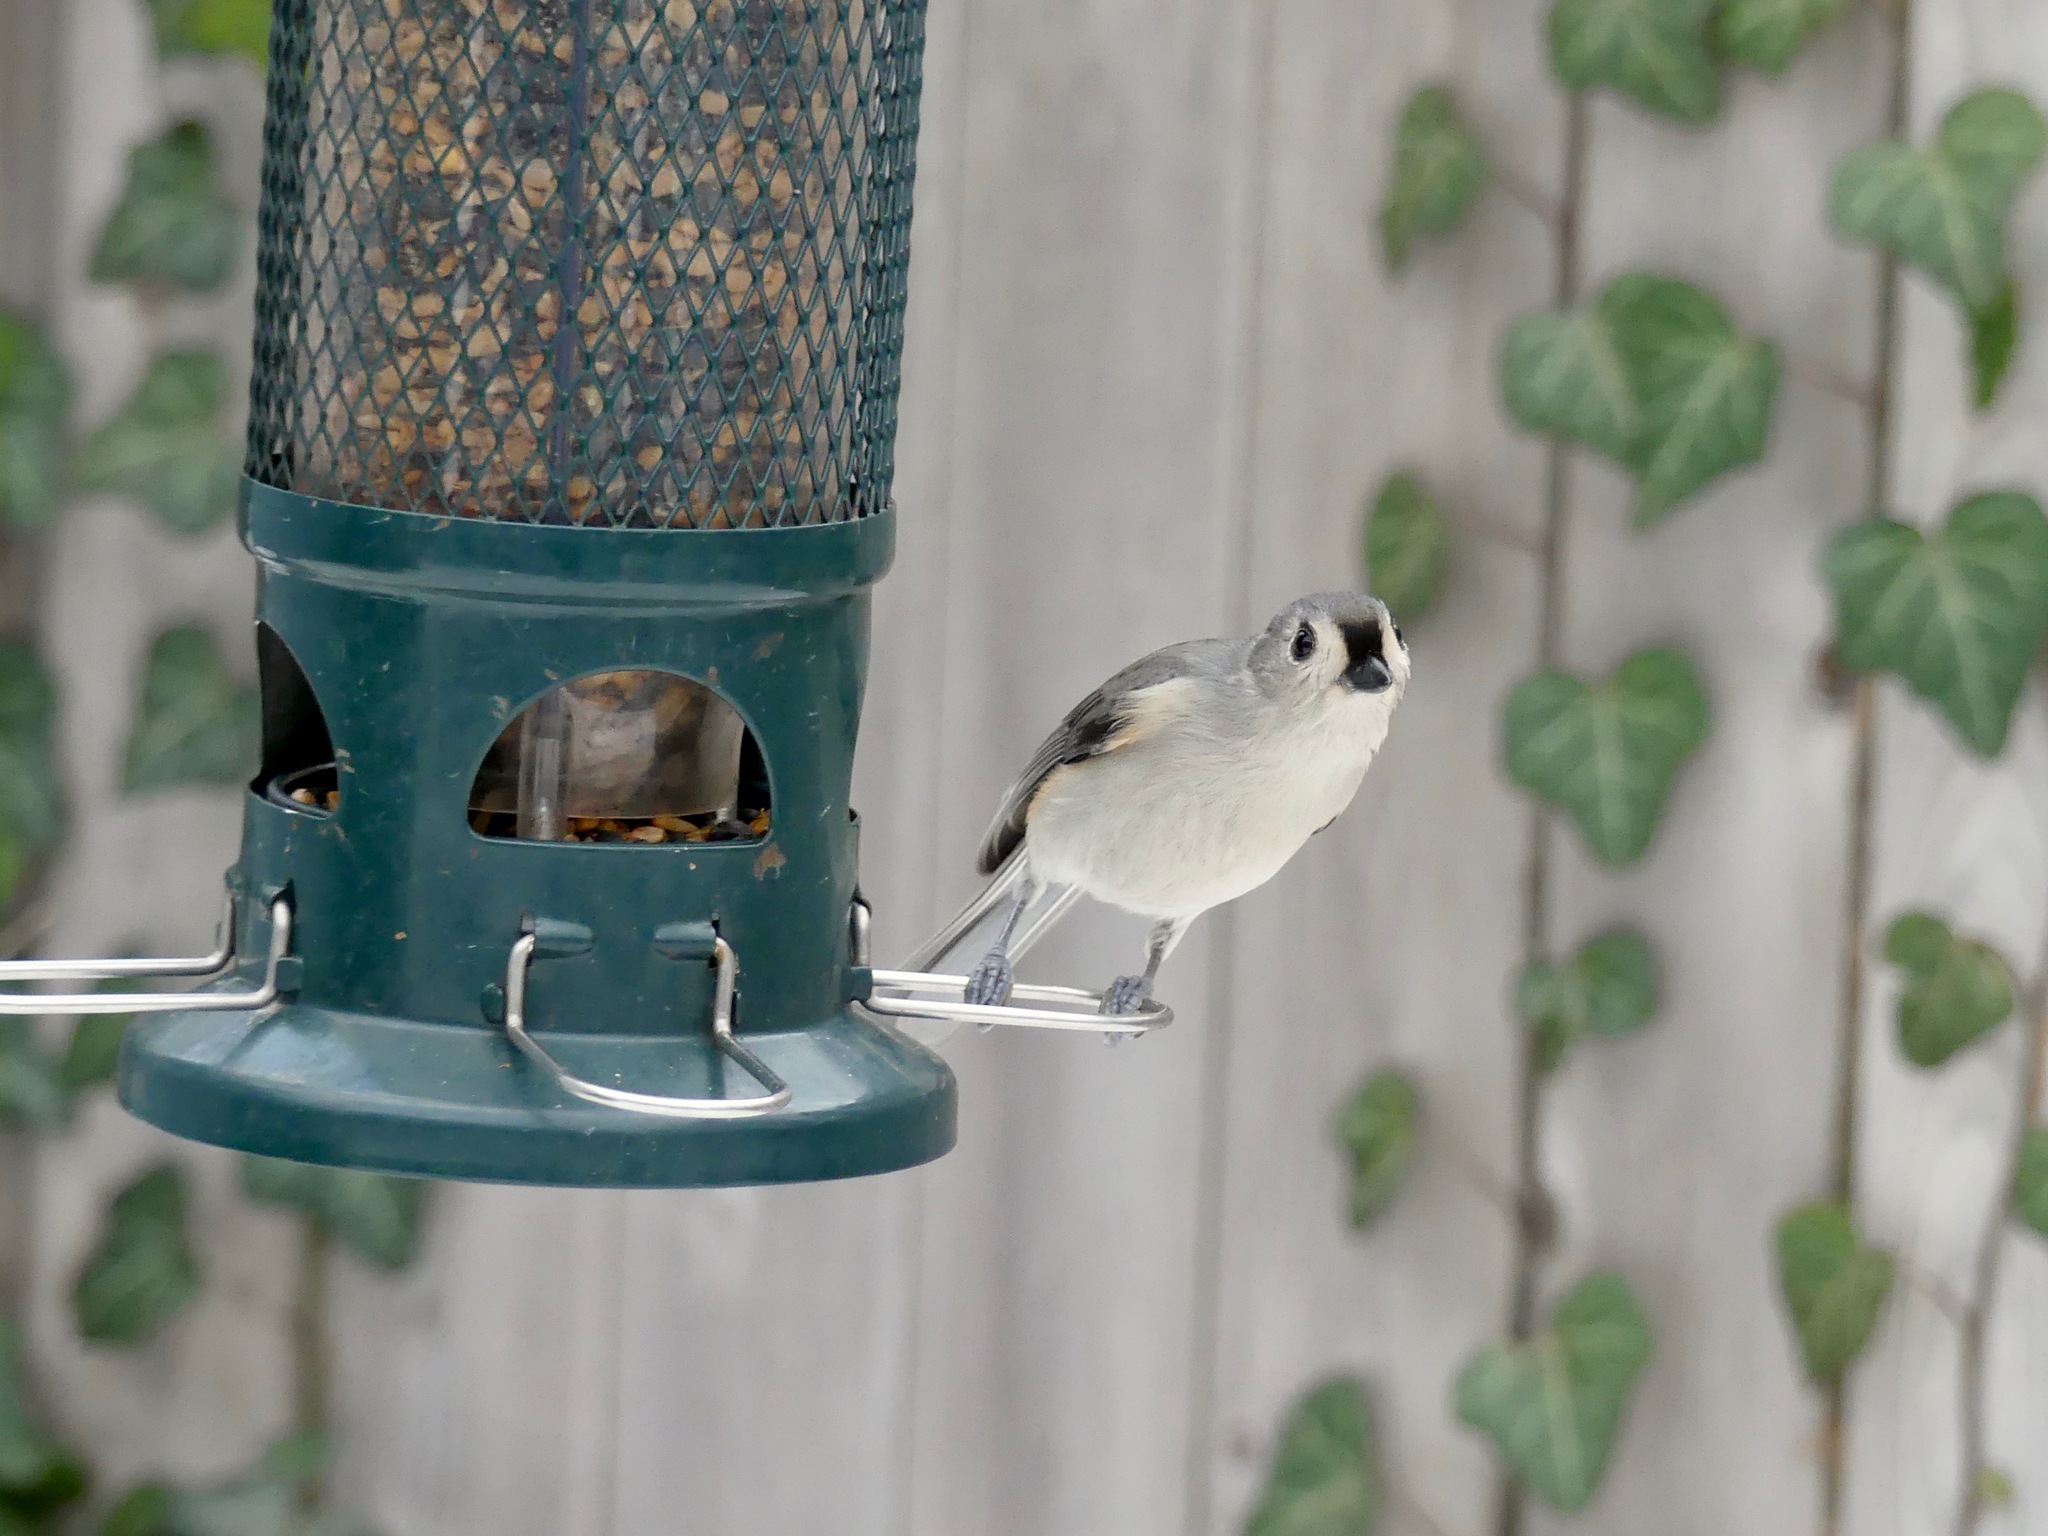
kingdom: Animalia
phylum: Chordata
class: Aves
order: Passeriformes
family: Paridae
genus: Baeolophus
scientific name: Baeolophus bicolor
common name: Tufted titmouse
